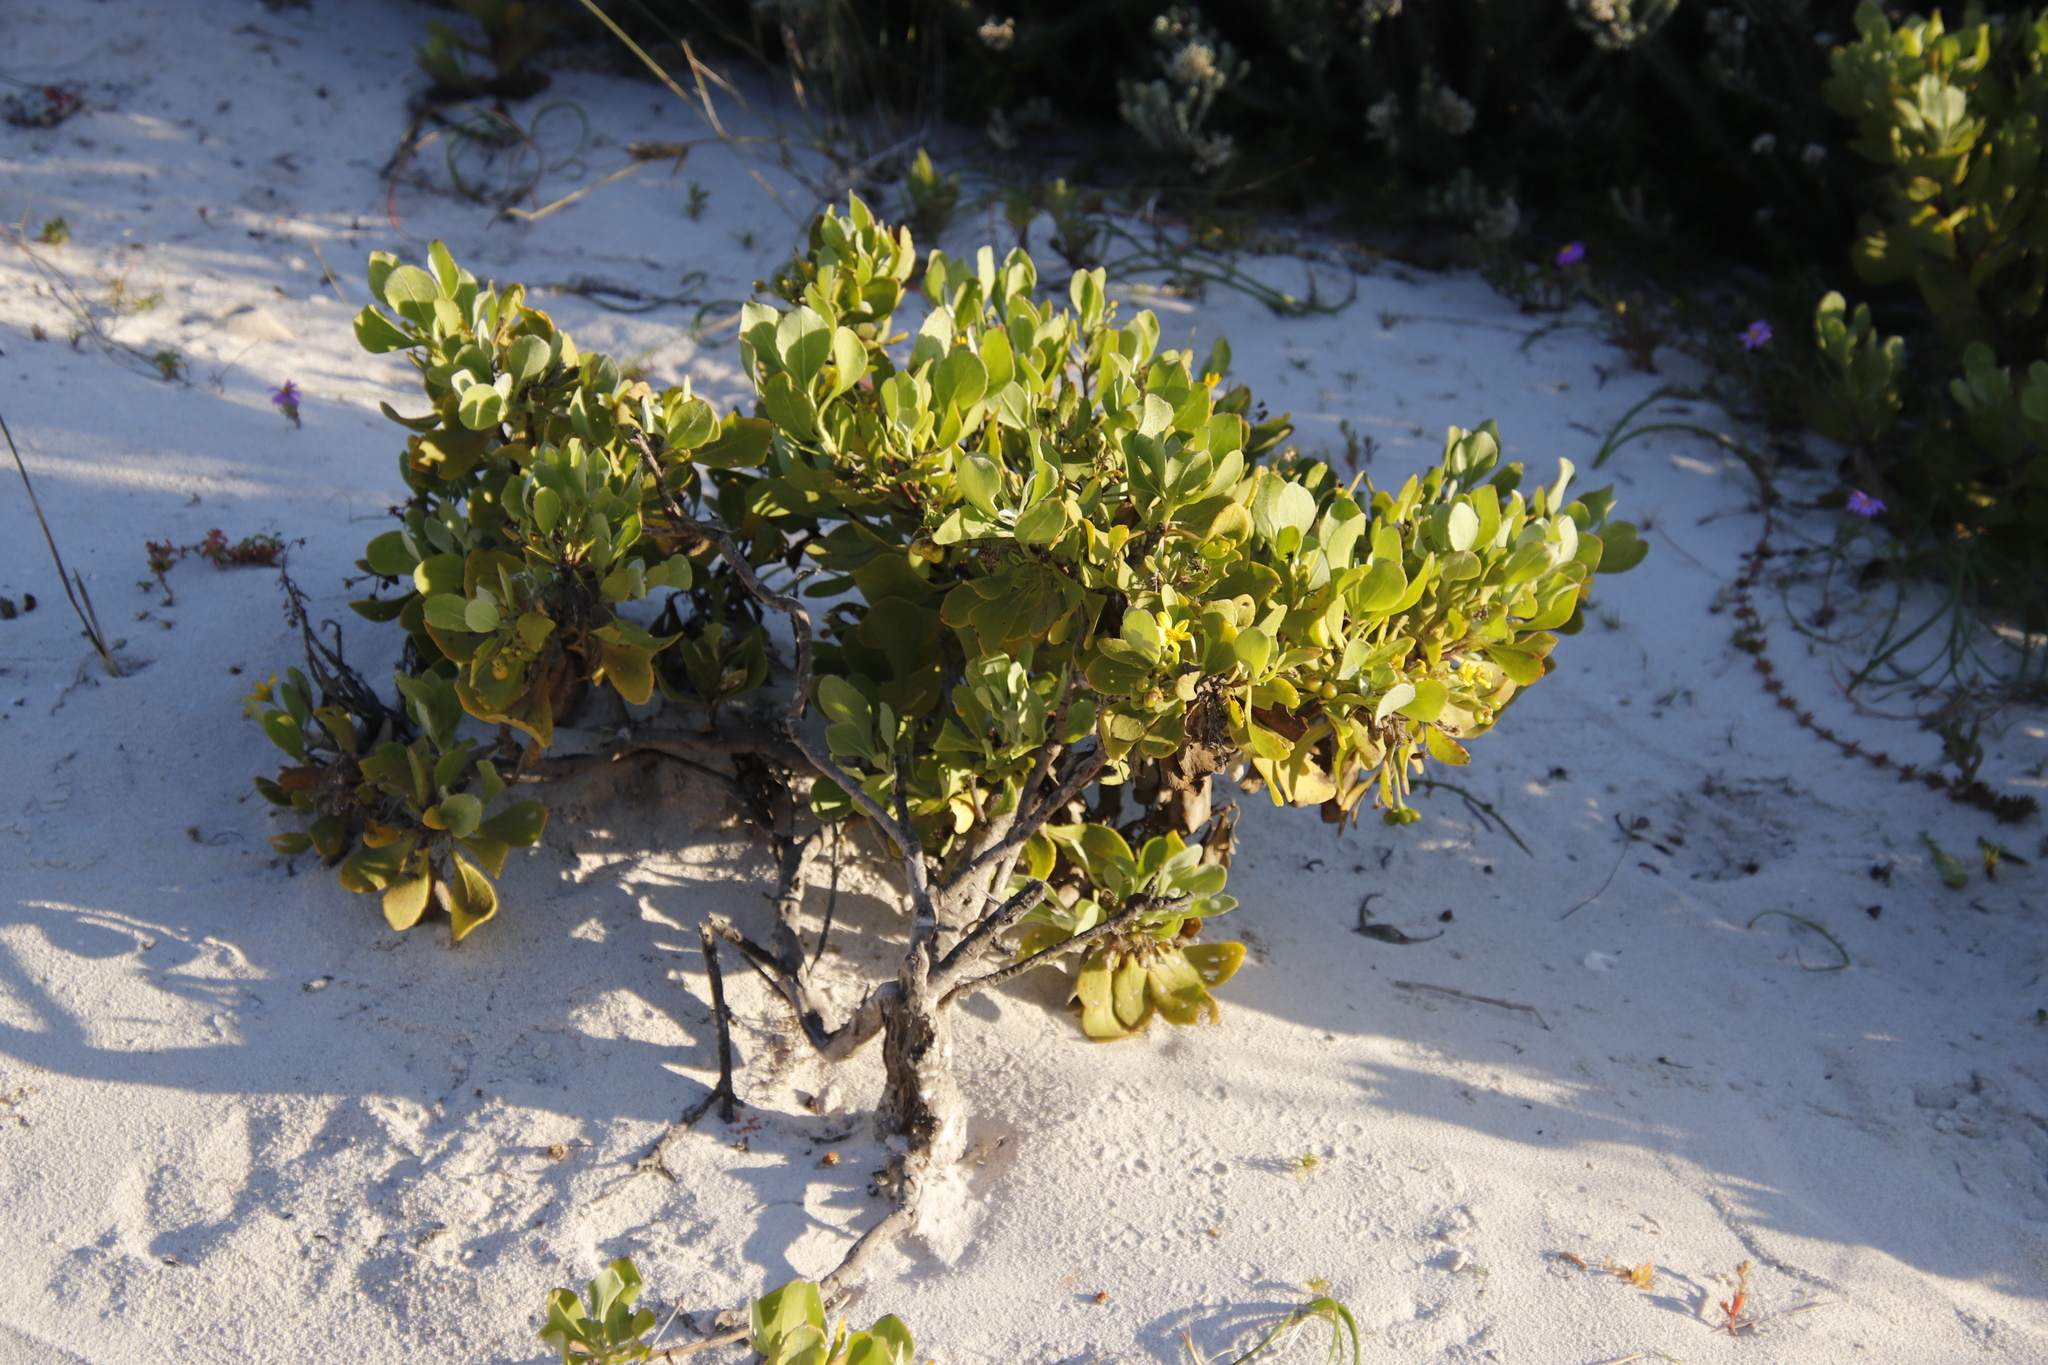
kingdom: Plantae
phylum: Tracheophyta
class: Magnoliopsida
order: Asterales
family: Asteraceae
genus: Osteospermum
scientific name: Osteospermum moniliferum
